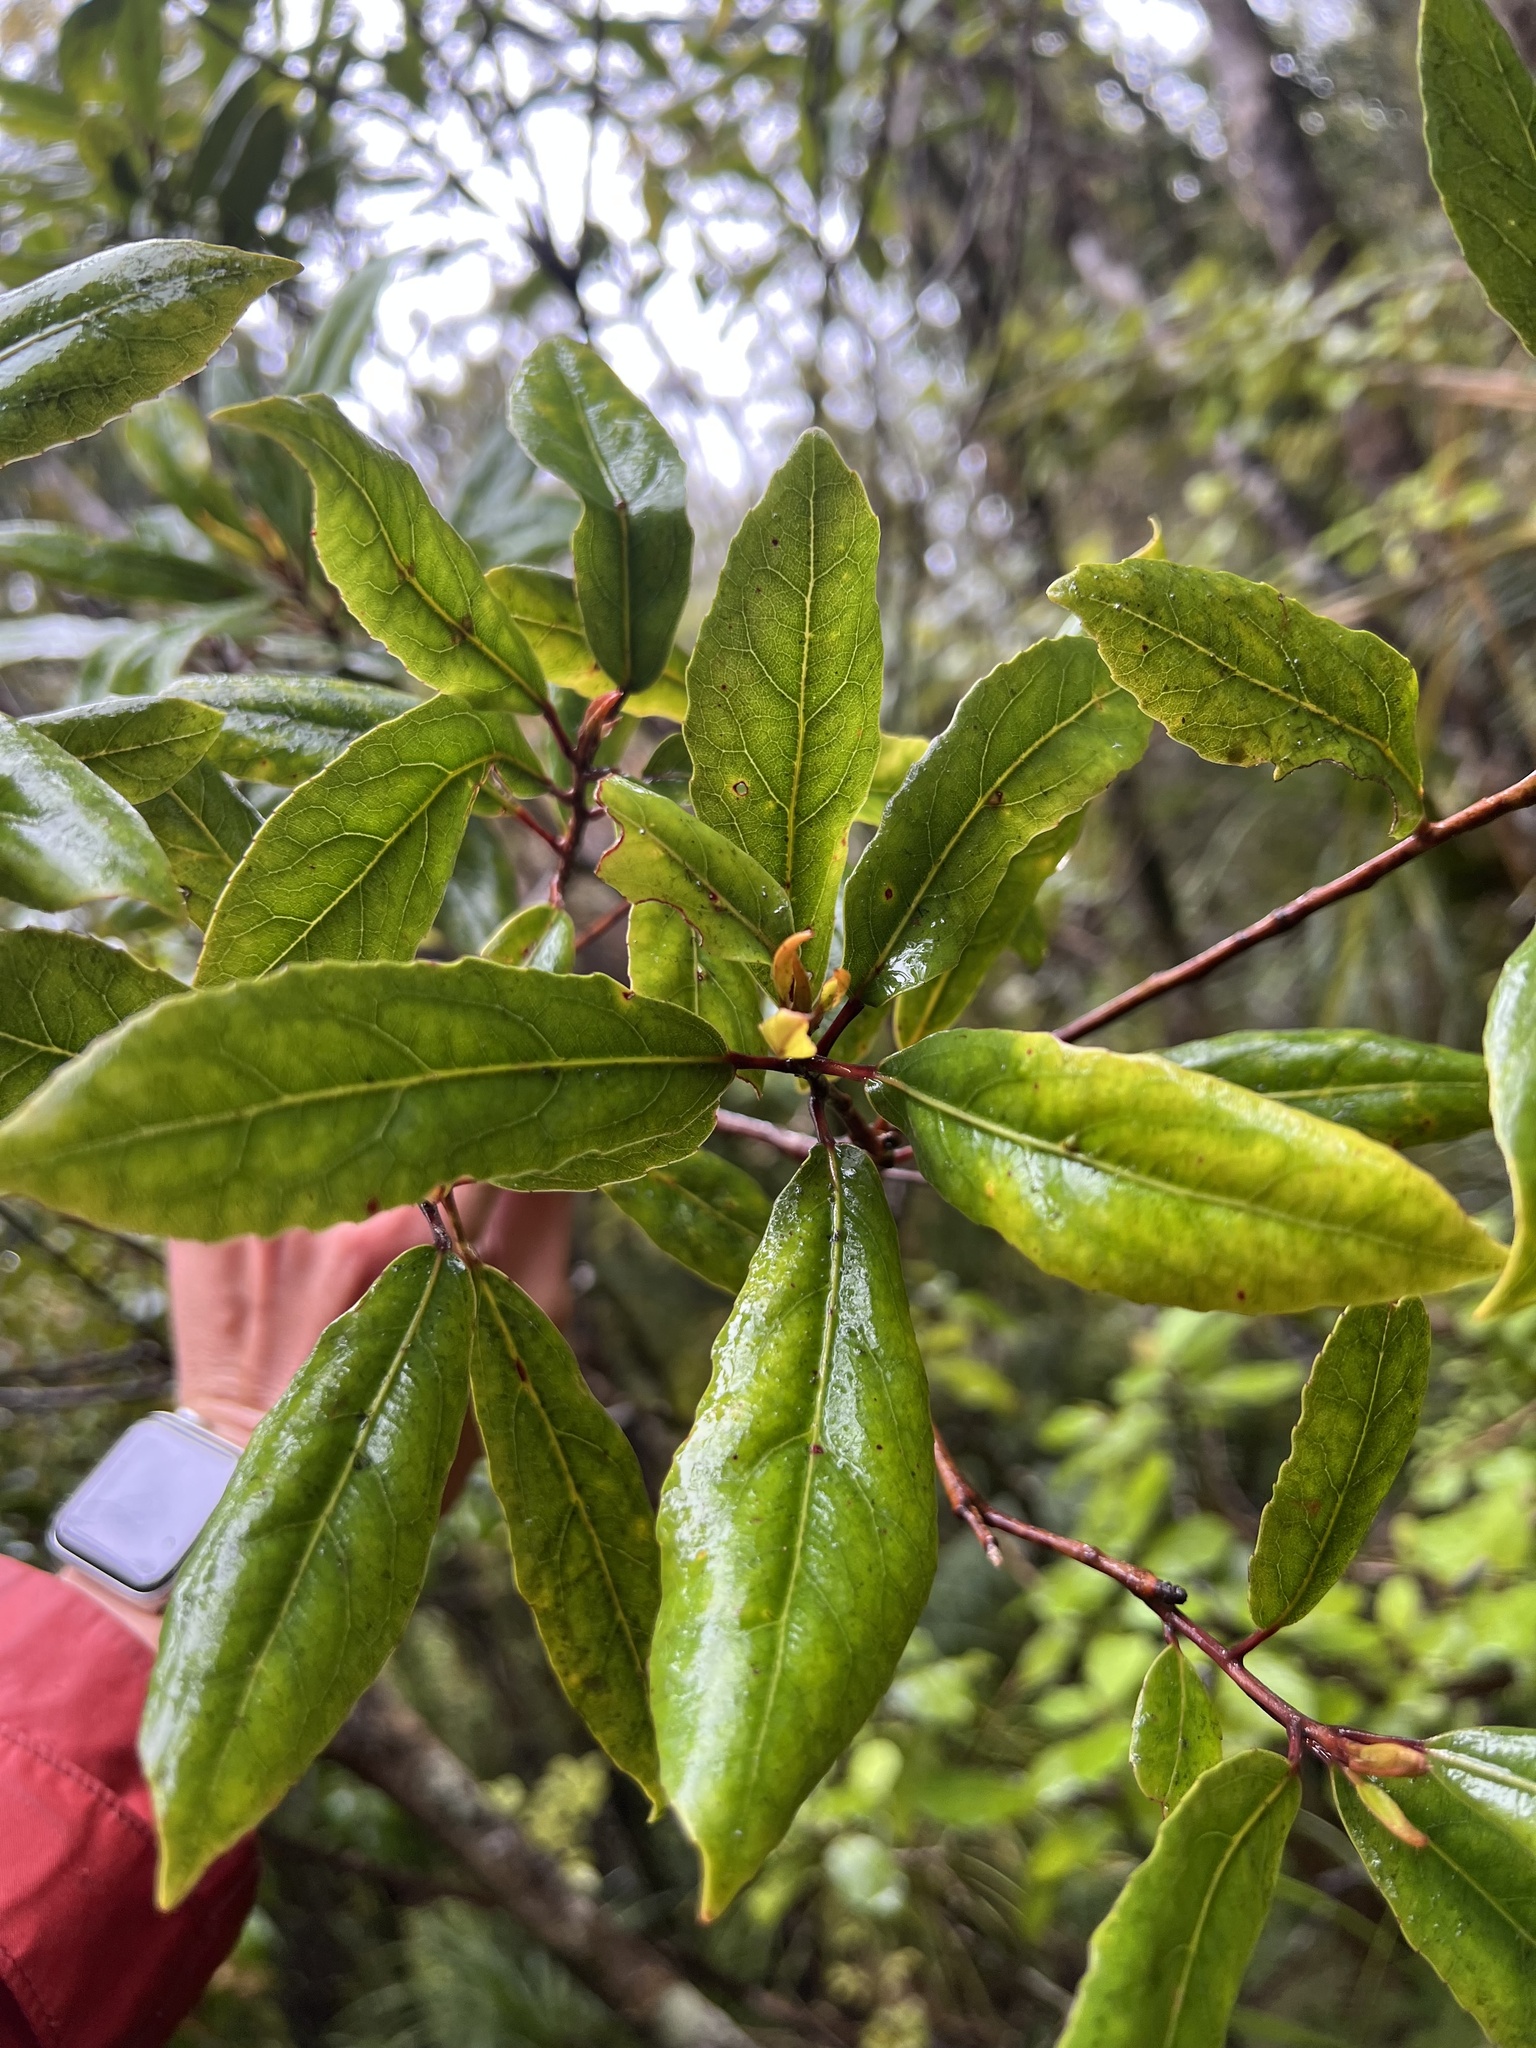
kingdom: Plantae
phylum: Tracheophyta
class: Magnoliopsida
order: Oxalidales
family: Elaeocarpaceae
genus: Elaeocarpus
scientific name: Elaeocarpus dentatus
